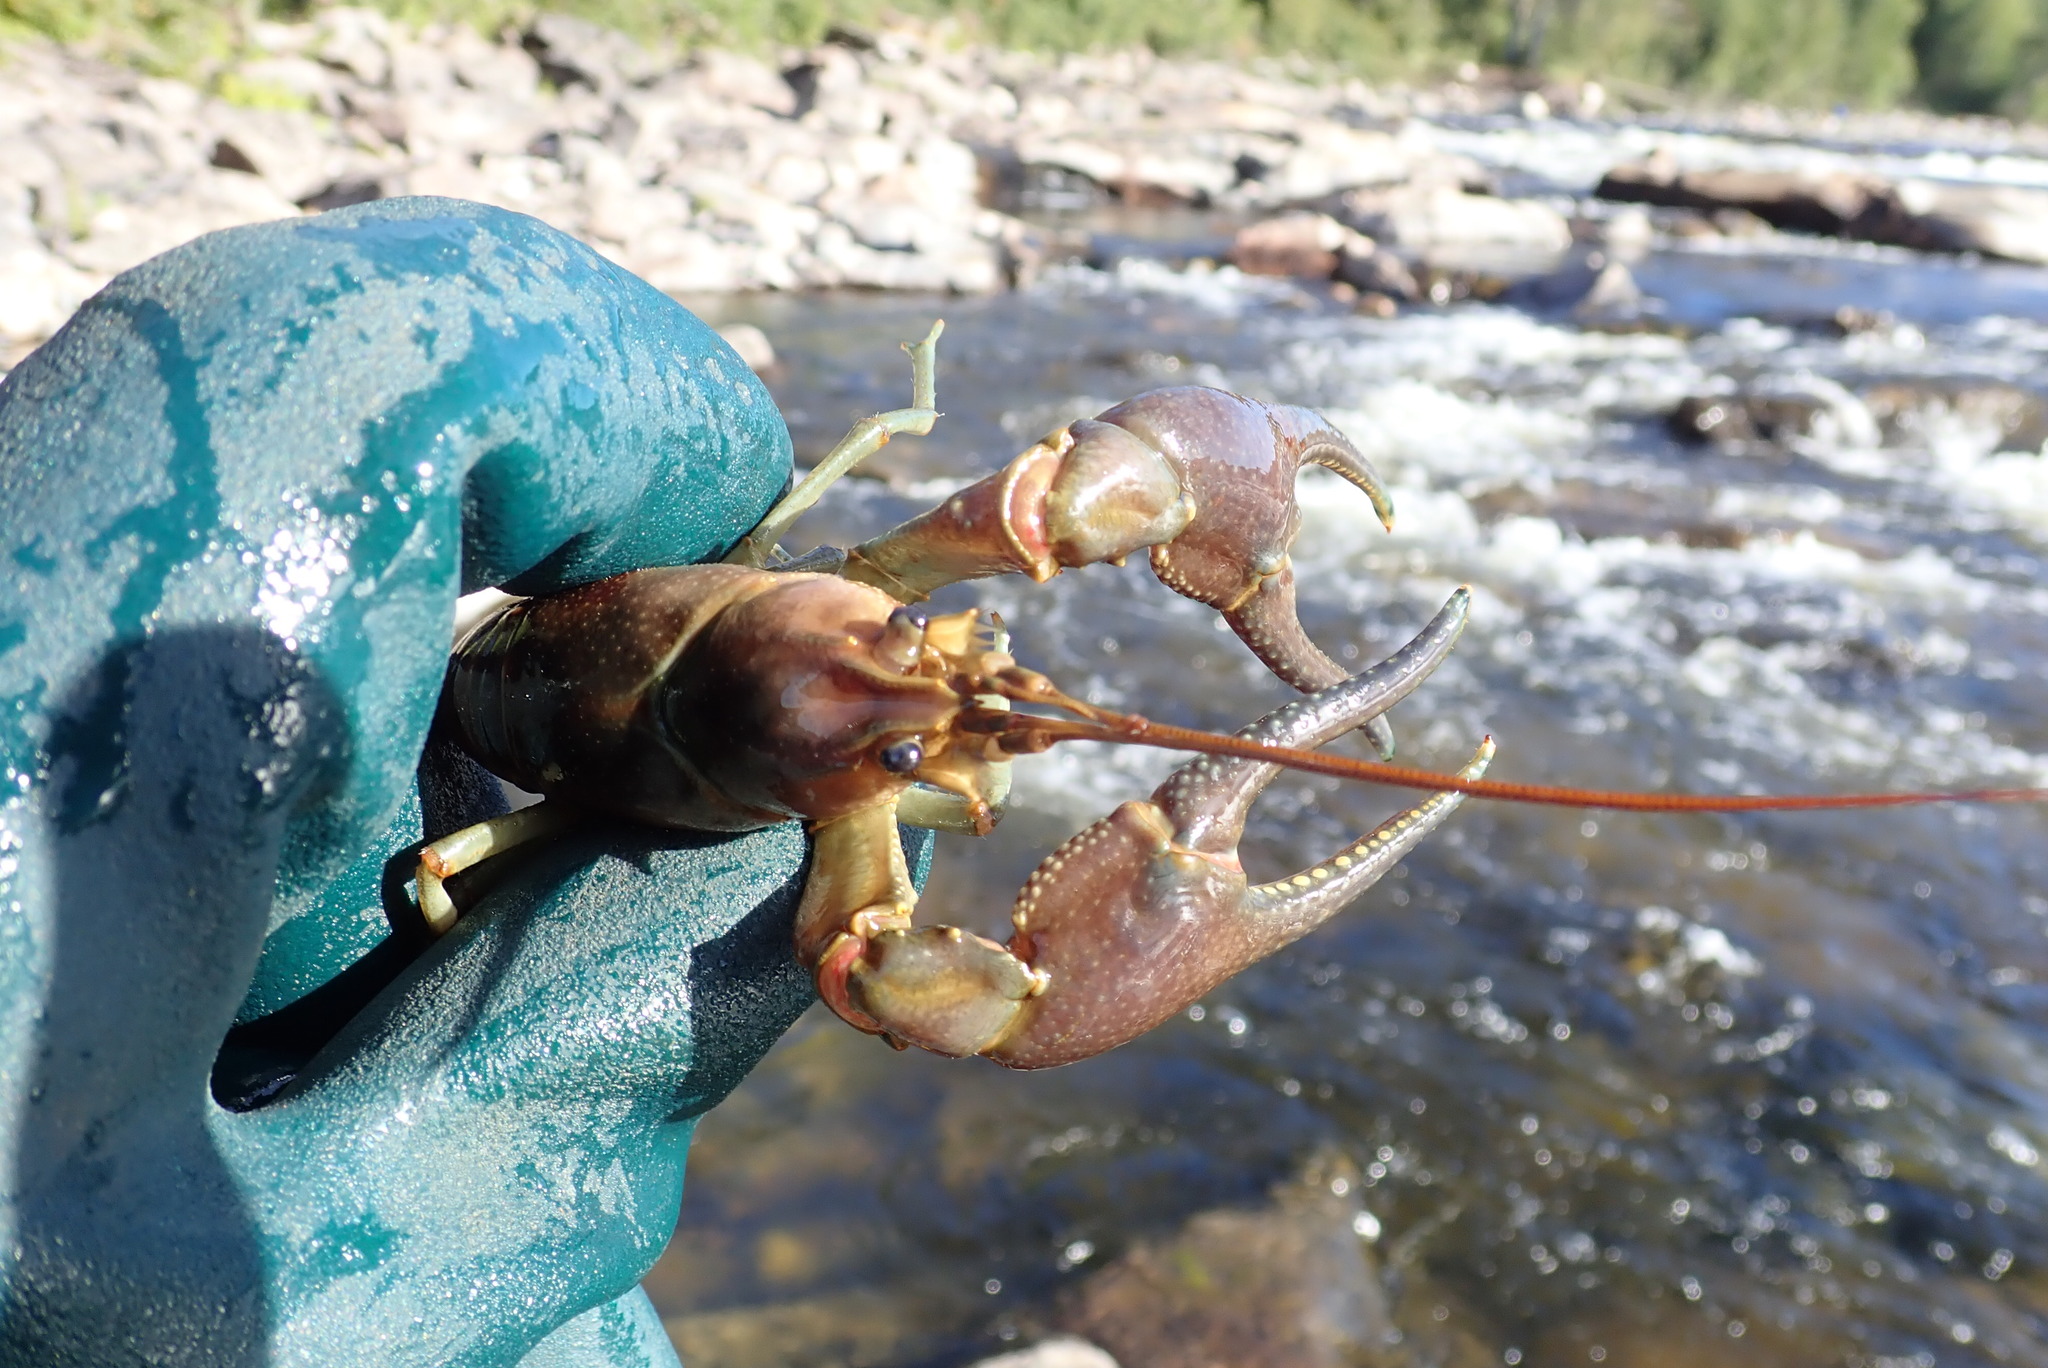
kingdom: Animalia
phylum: Arthropoda
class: Malacostraca
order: Decapoda
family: Cambaridae
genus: Faxonius
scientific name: Faxonius rusticus
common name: Rusty crayfish
